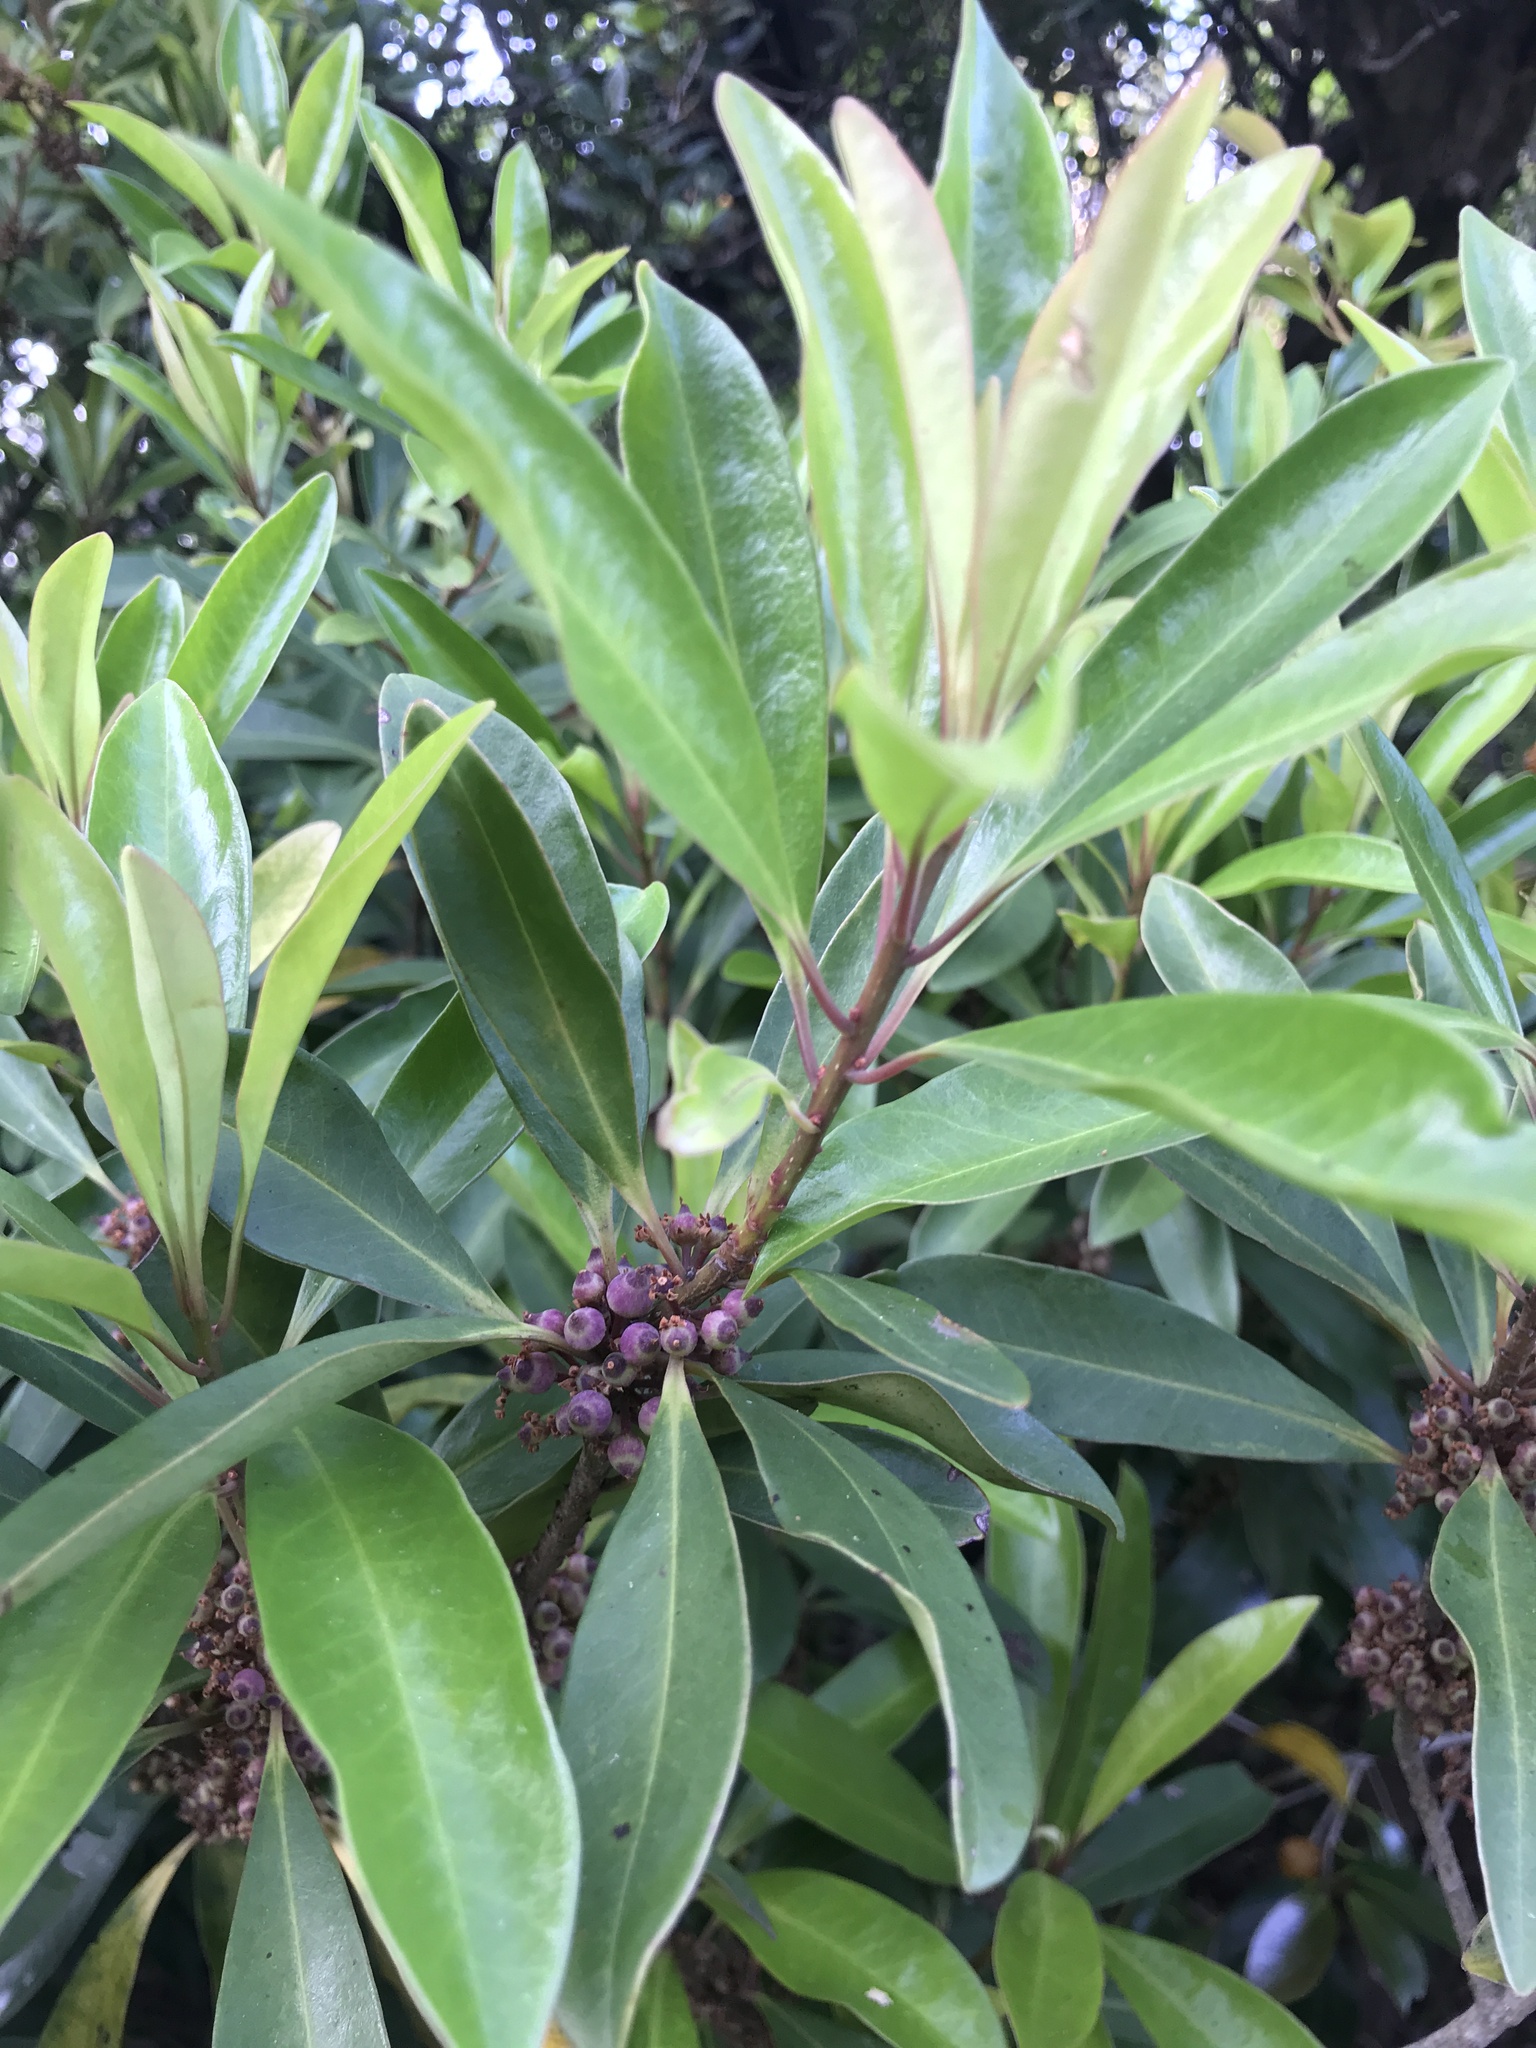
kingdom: Plantae
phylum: Tracheophyta
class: Magnoliopsida
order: Ericales
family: Primulaceae
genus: Myrsine
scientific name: Myrsine seguinii
